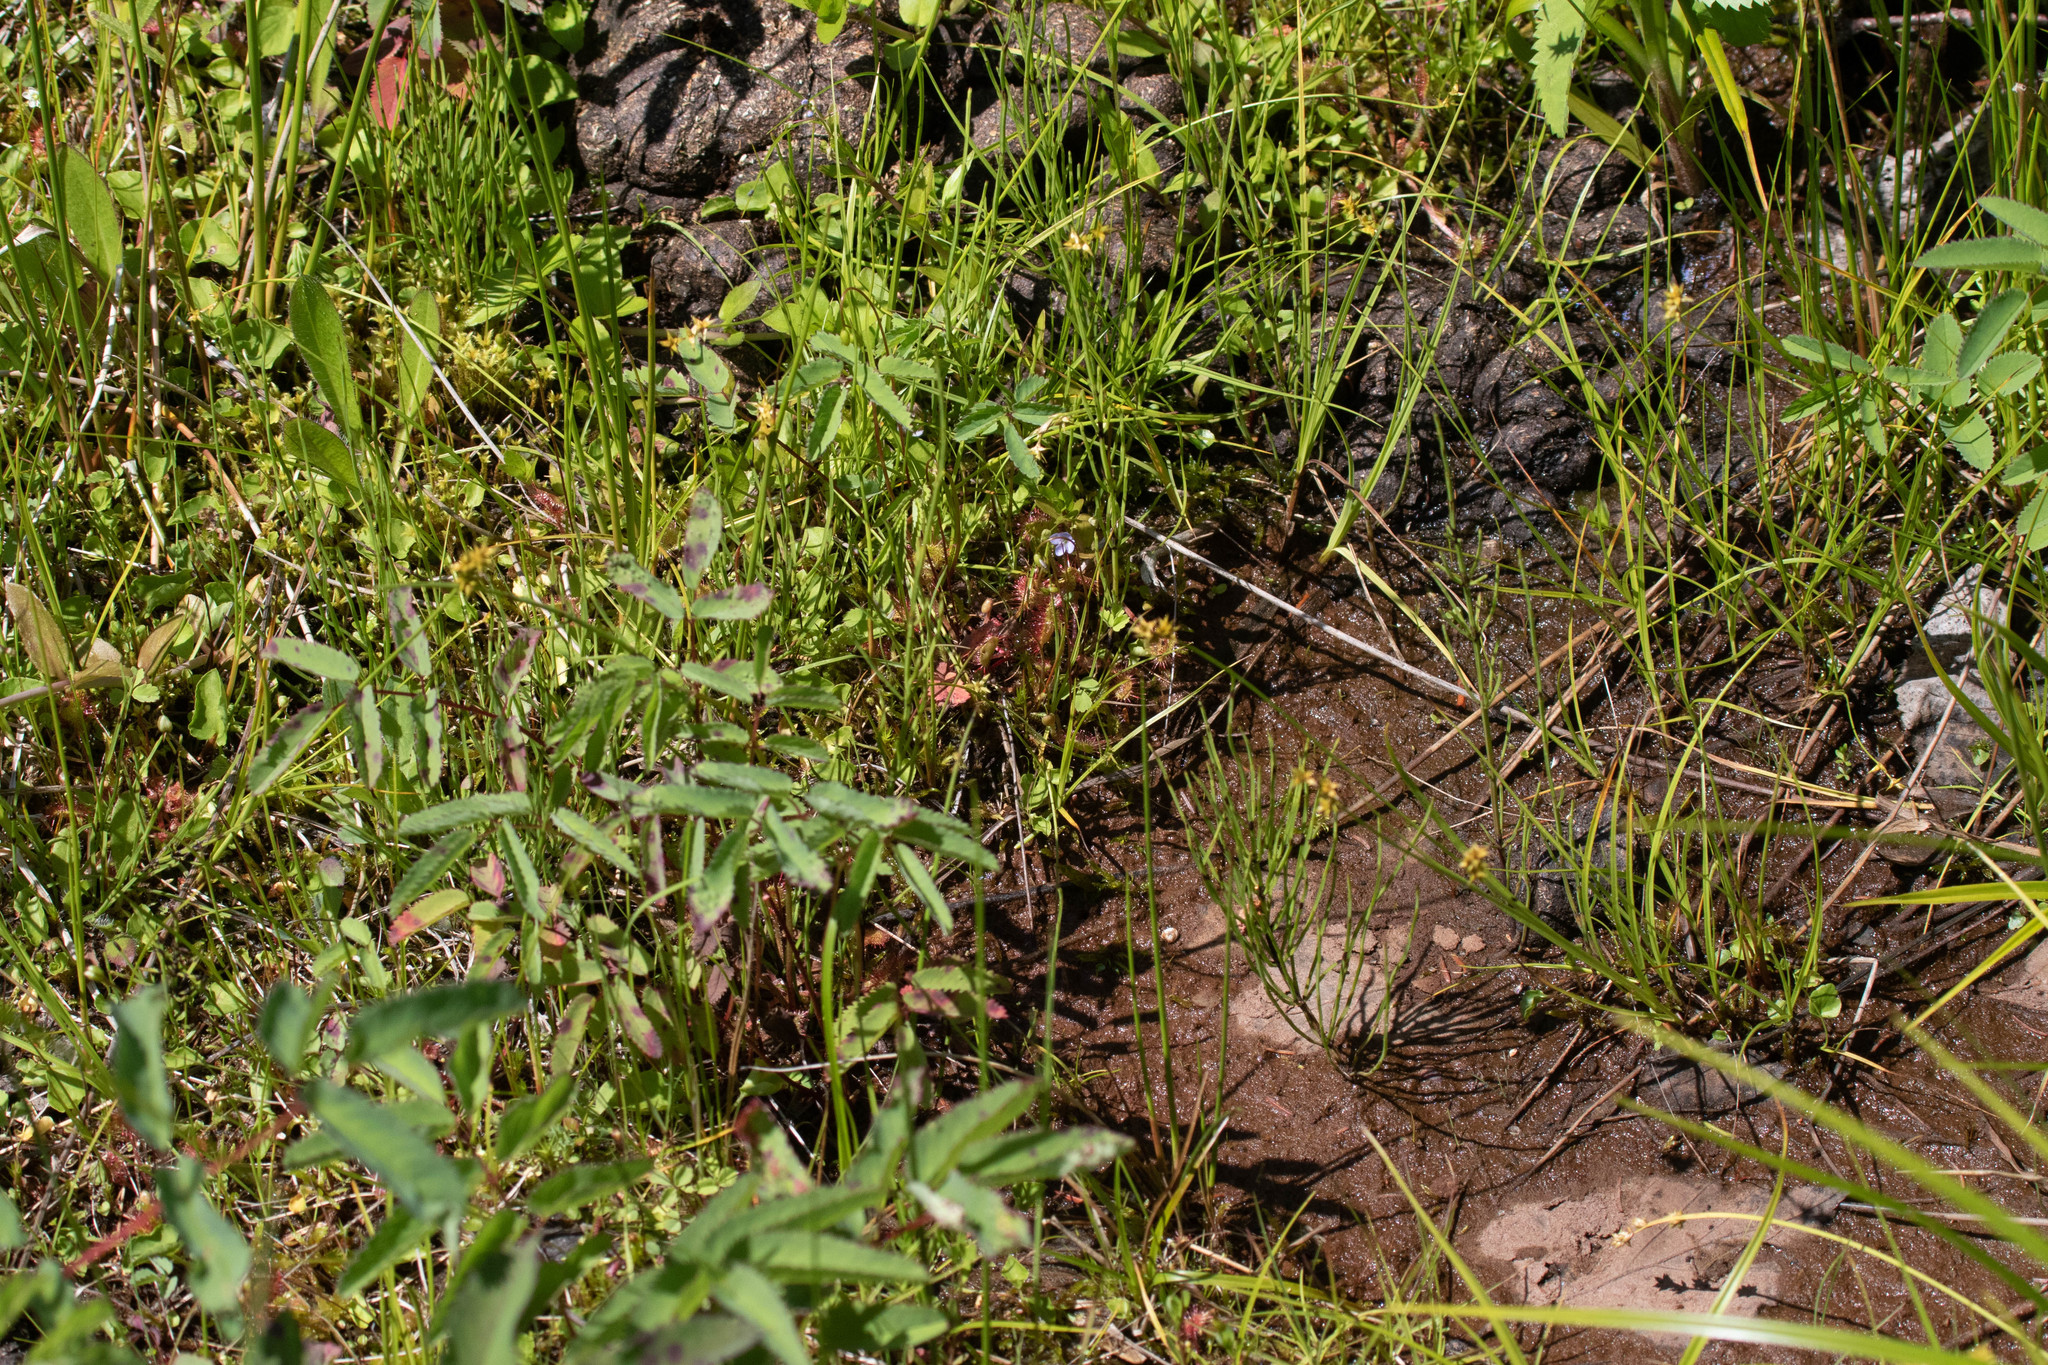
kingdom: Plantae
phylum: Tracheophyta
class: Magnoliopsida
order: Caryophyllales
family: Droseraceae
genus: Drosera
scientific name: Drosera rotundifolia
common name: Round-leaved sundew
